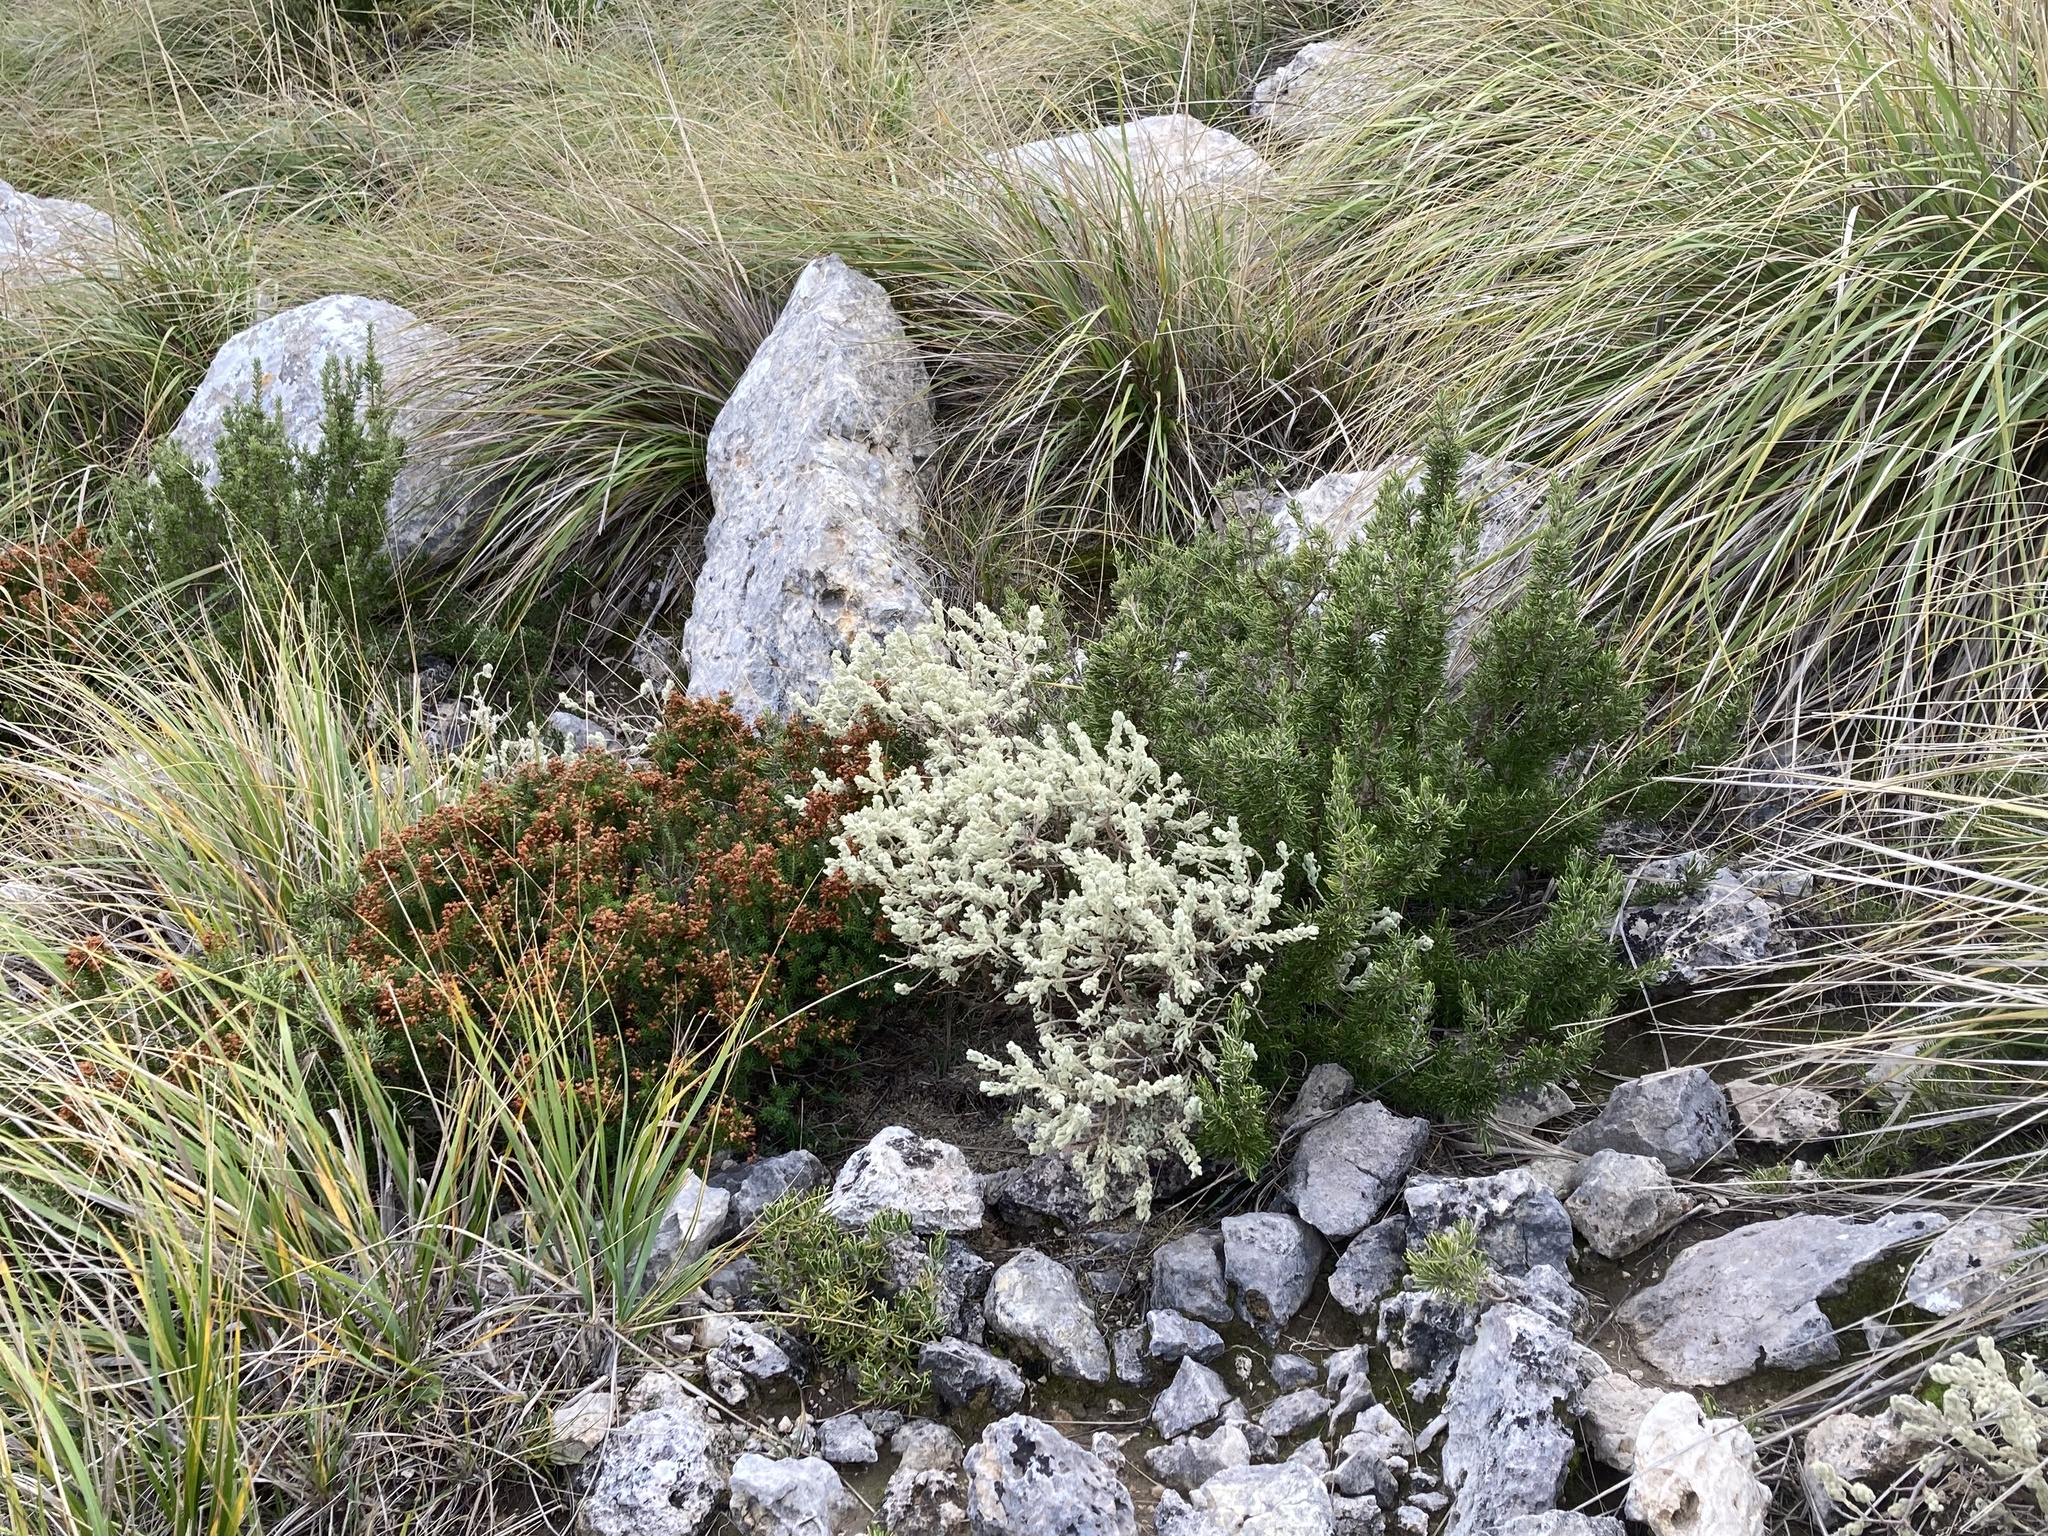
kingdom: Plantae
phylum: Tracheophyta
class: Magnoliopsida
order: Lamiales
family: Lamiaceae
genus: Salvia
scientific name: Salvia rosmarinus
